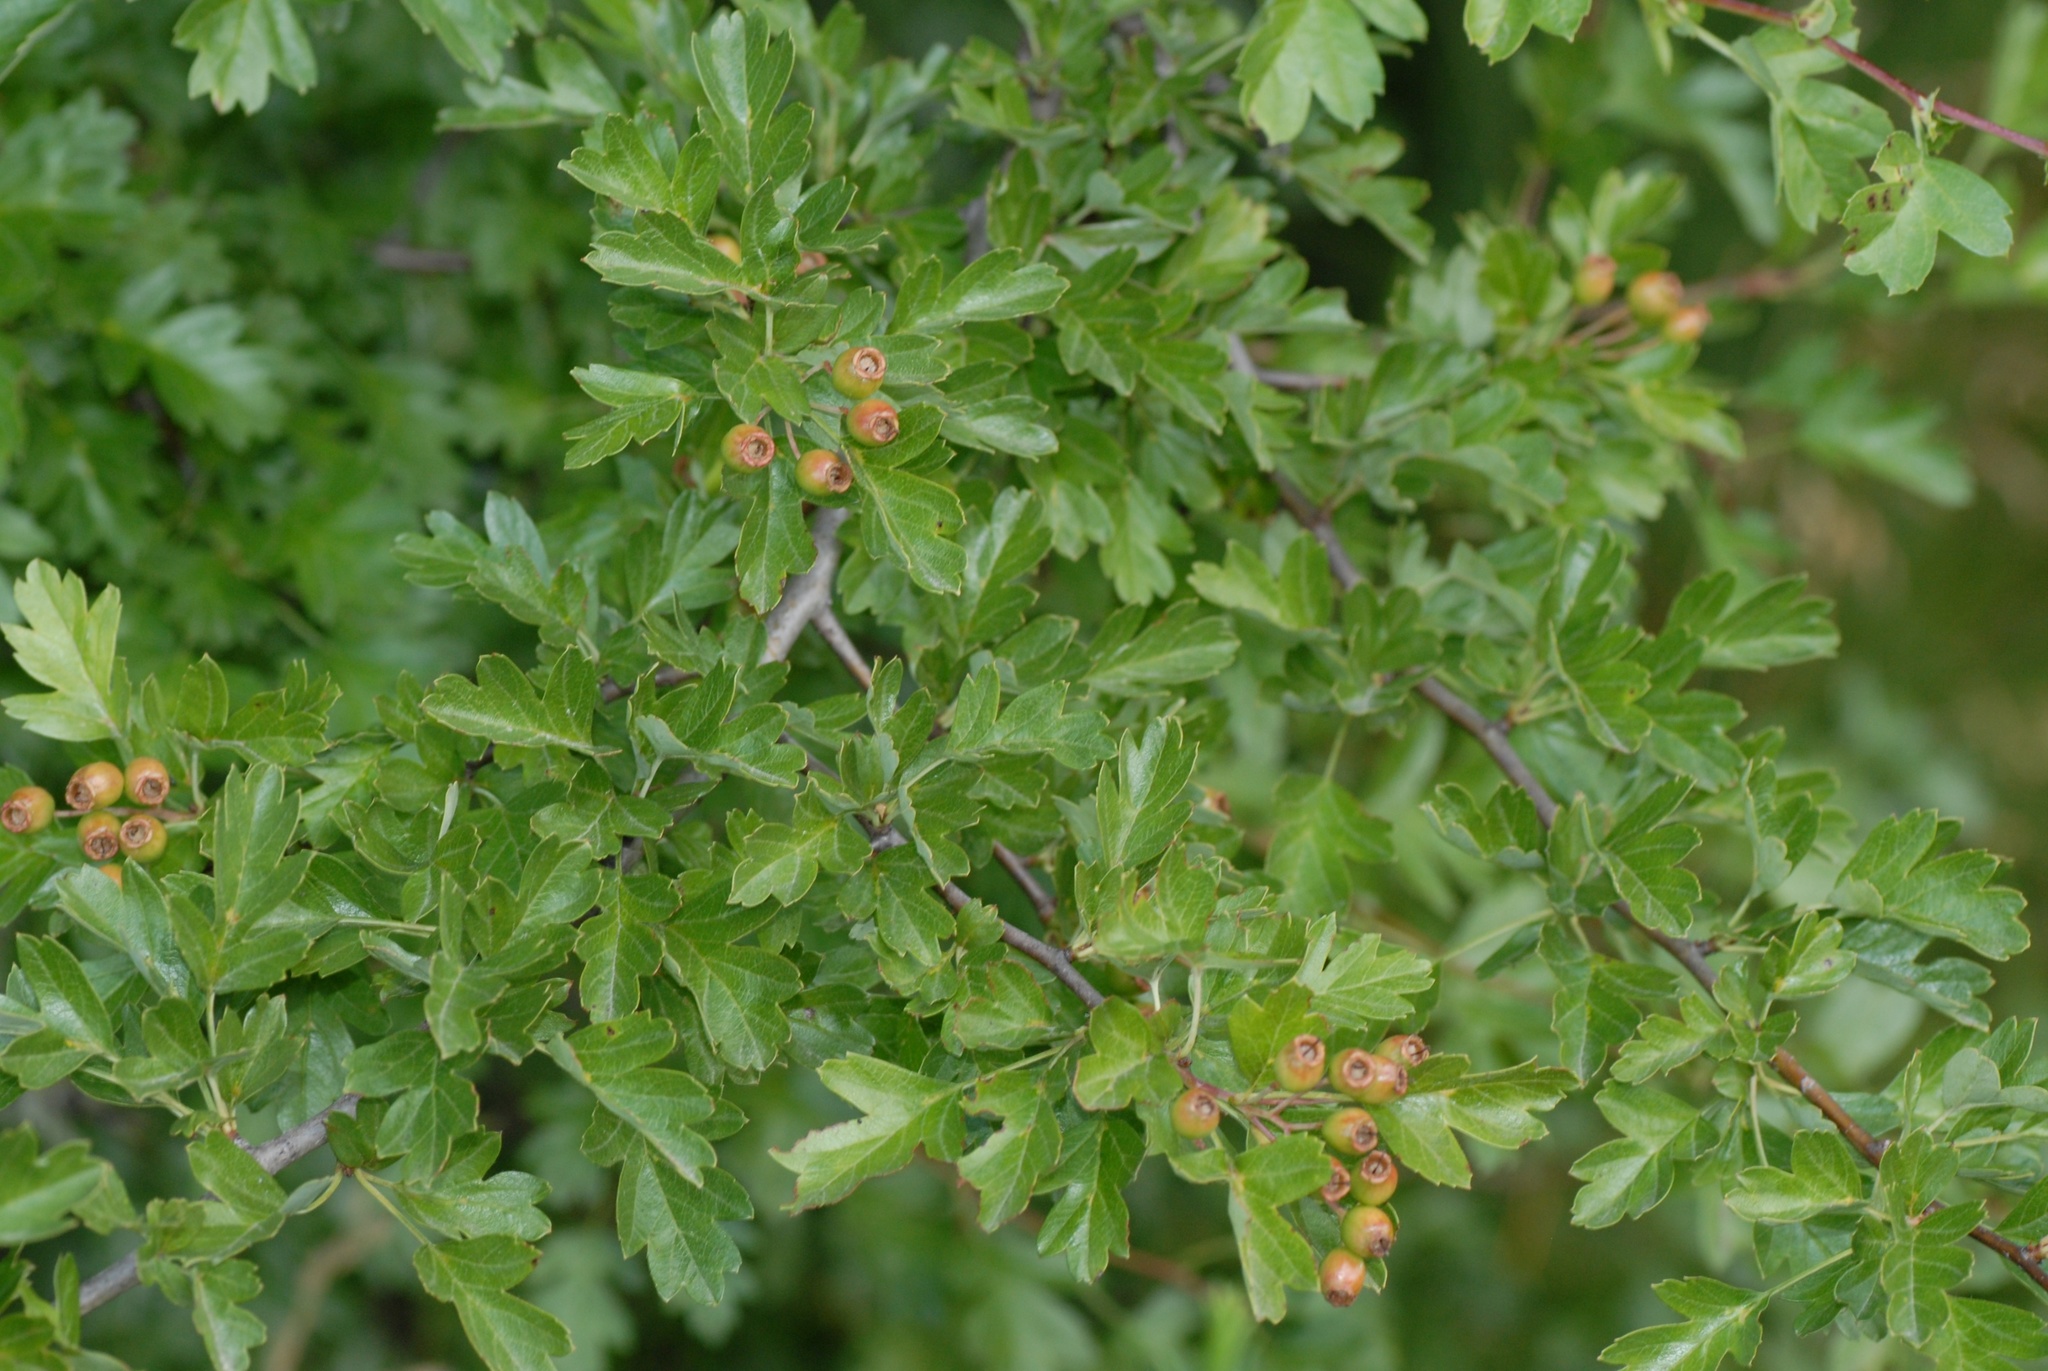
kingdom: Plantae
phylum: Tracheophyta
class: Magnoliopsida
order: Rosales
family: Rosaceae
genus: Crataegus
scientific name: Crataegus monogyna
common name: Hawthorn
